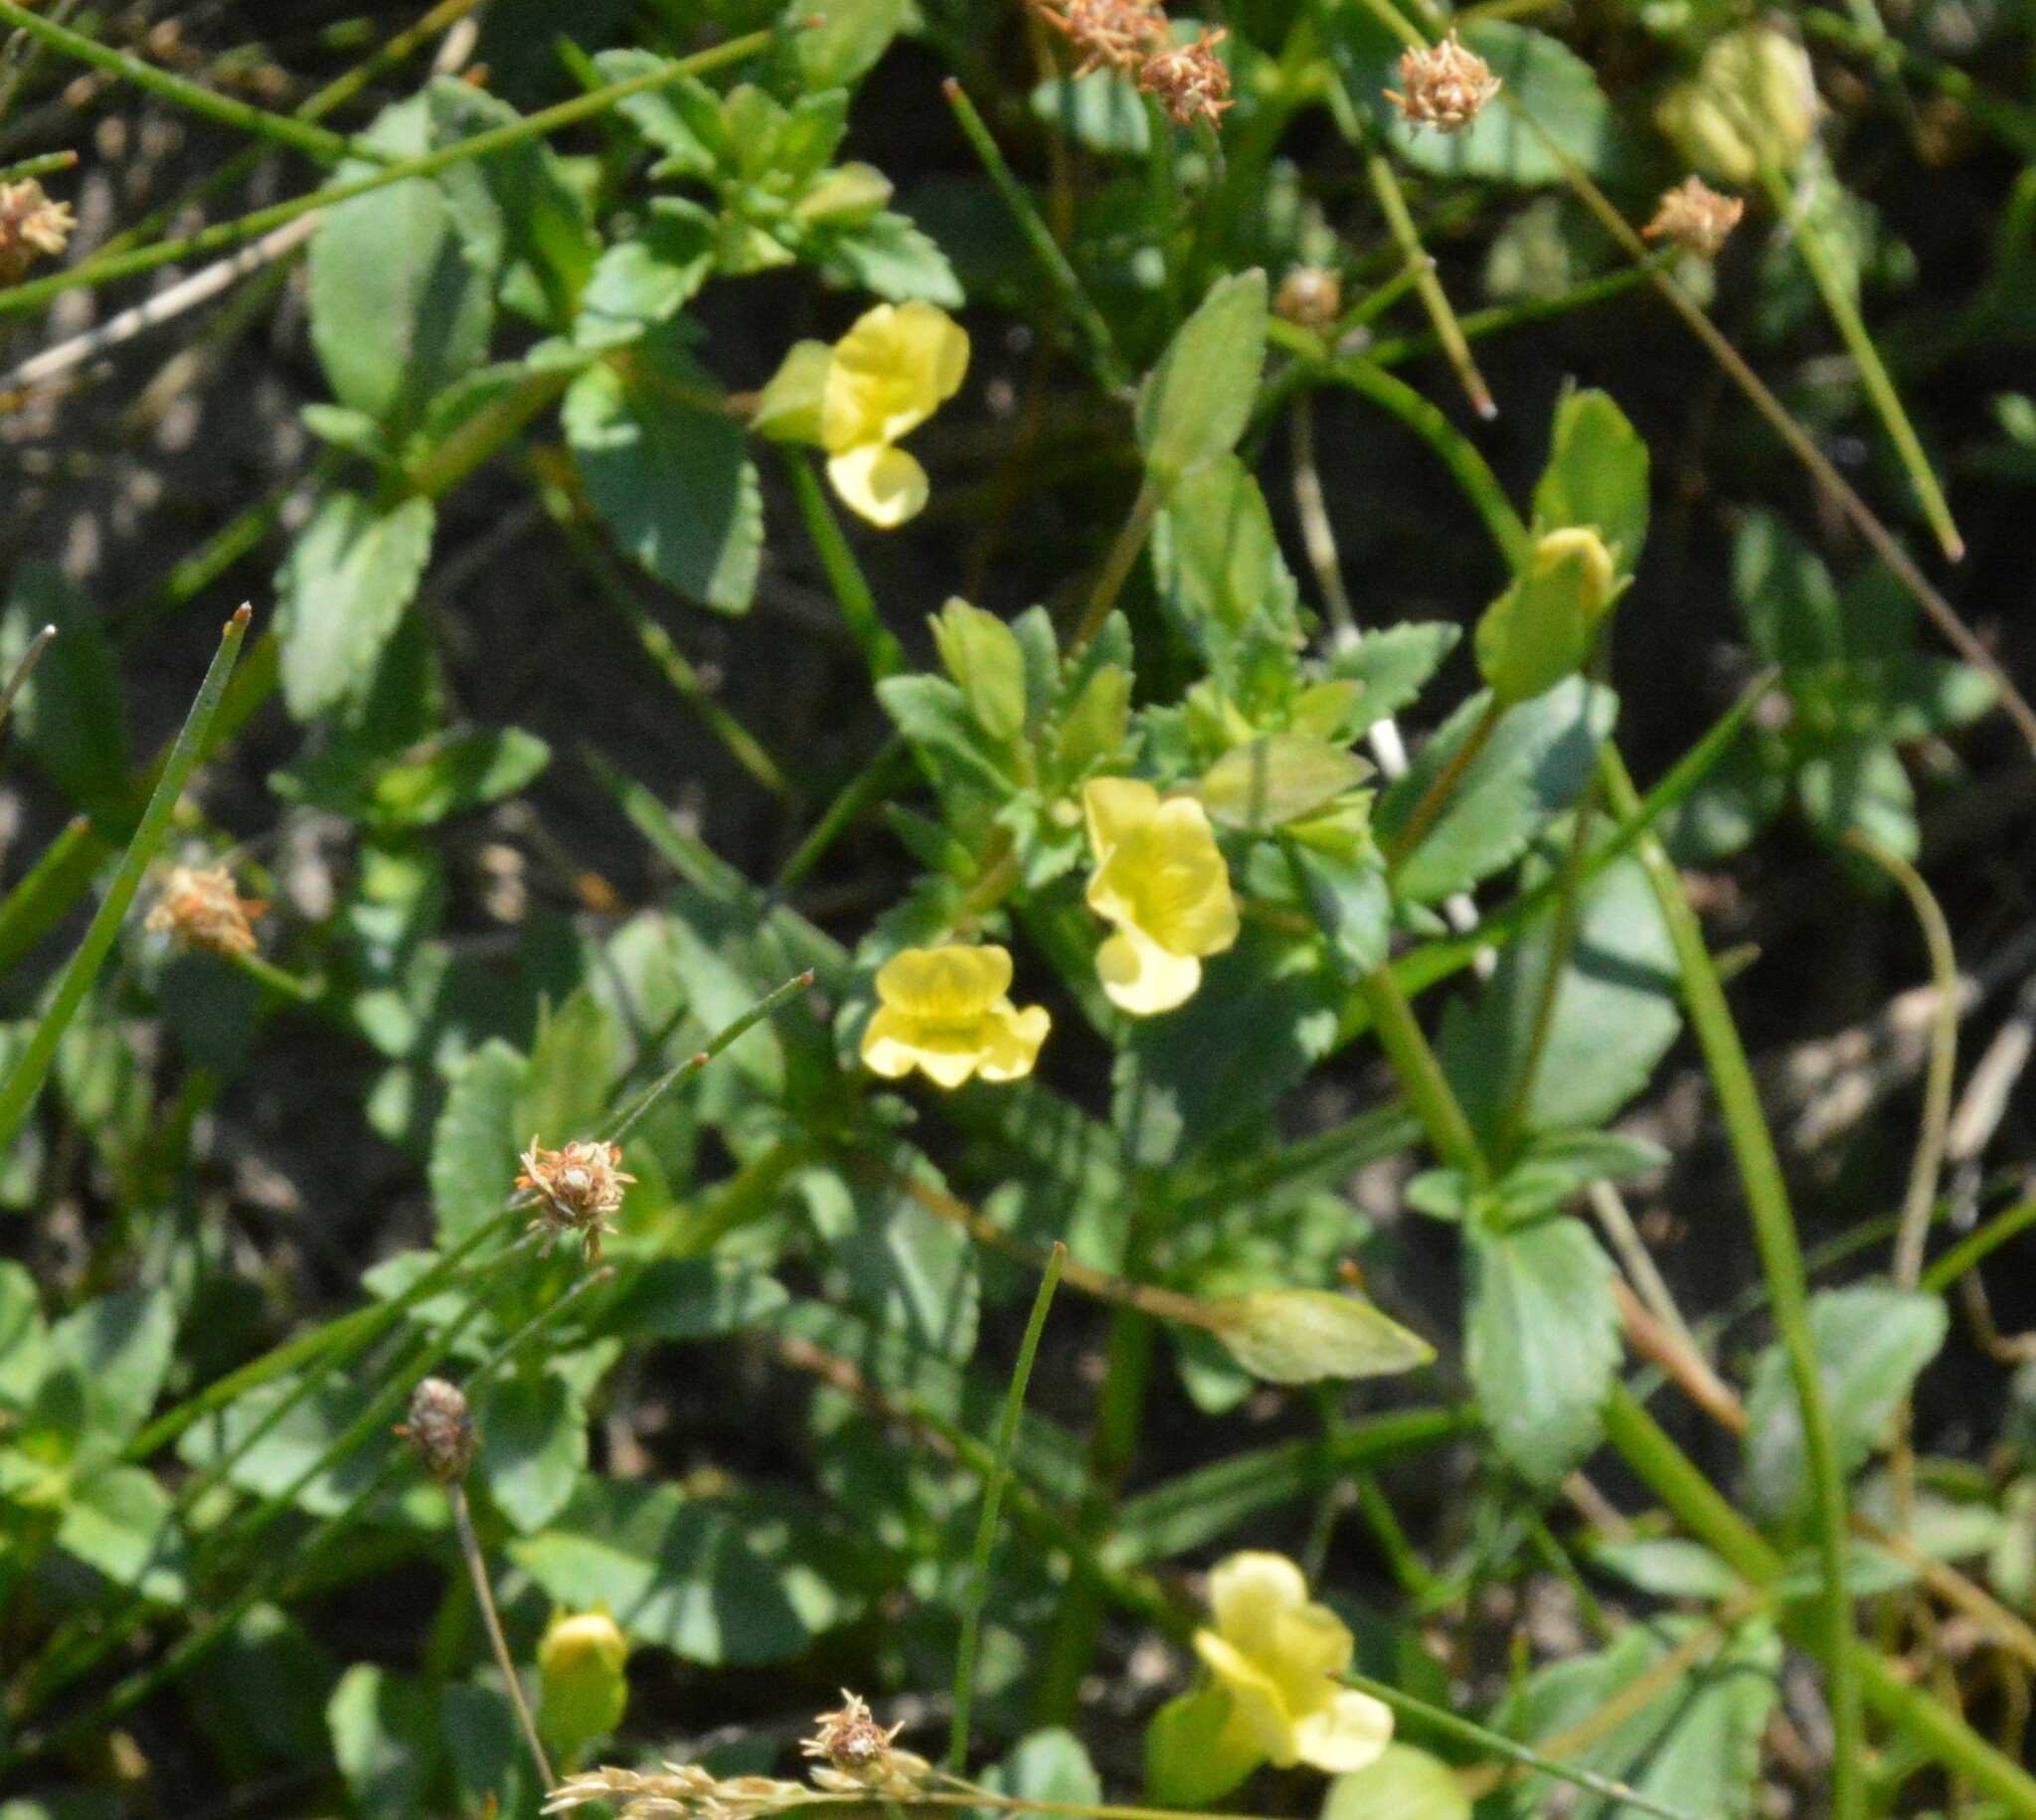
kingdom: Plantae
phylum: Tracheophyta
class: Magnoliopsida
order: Lamiales
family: Plantaginaceae
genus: Mecardonia
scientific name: Mecardonia procumbens
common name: Baby jump-up
